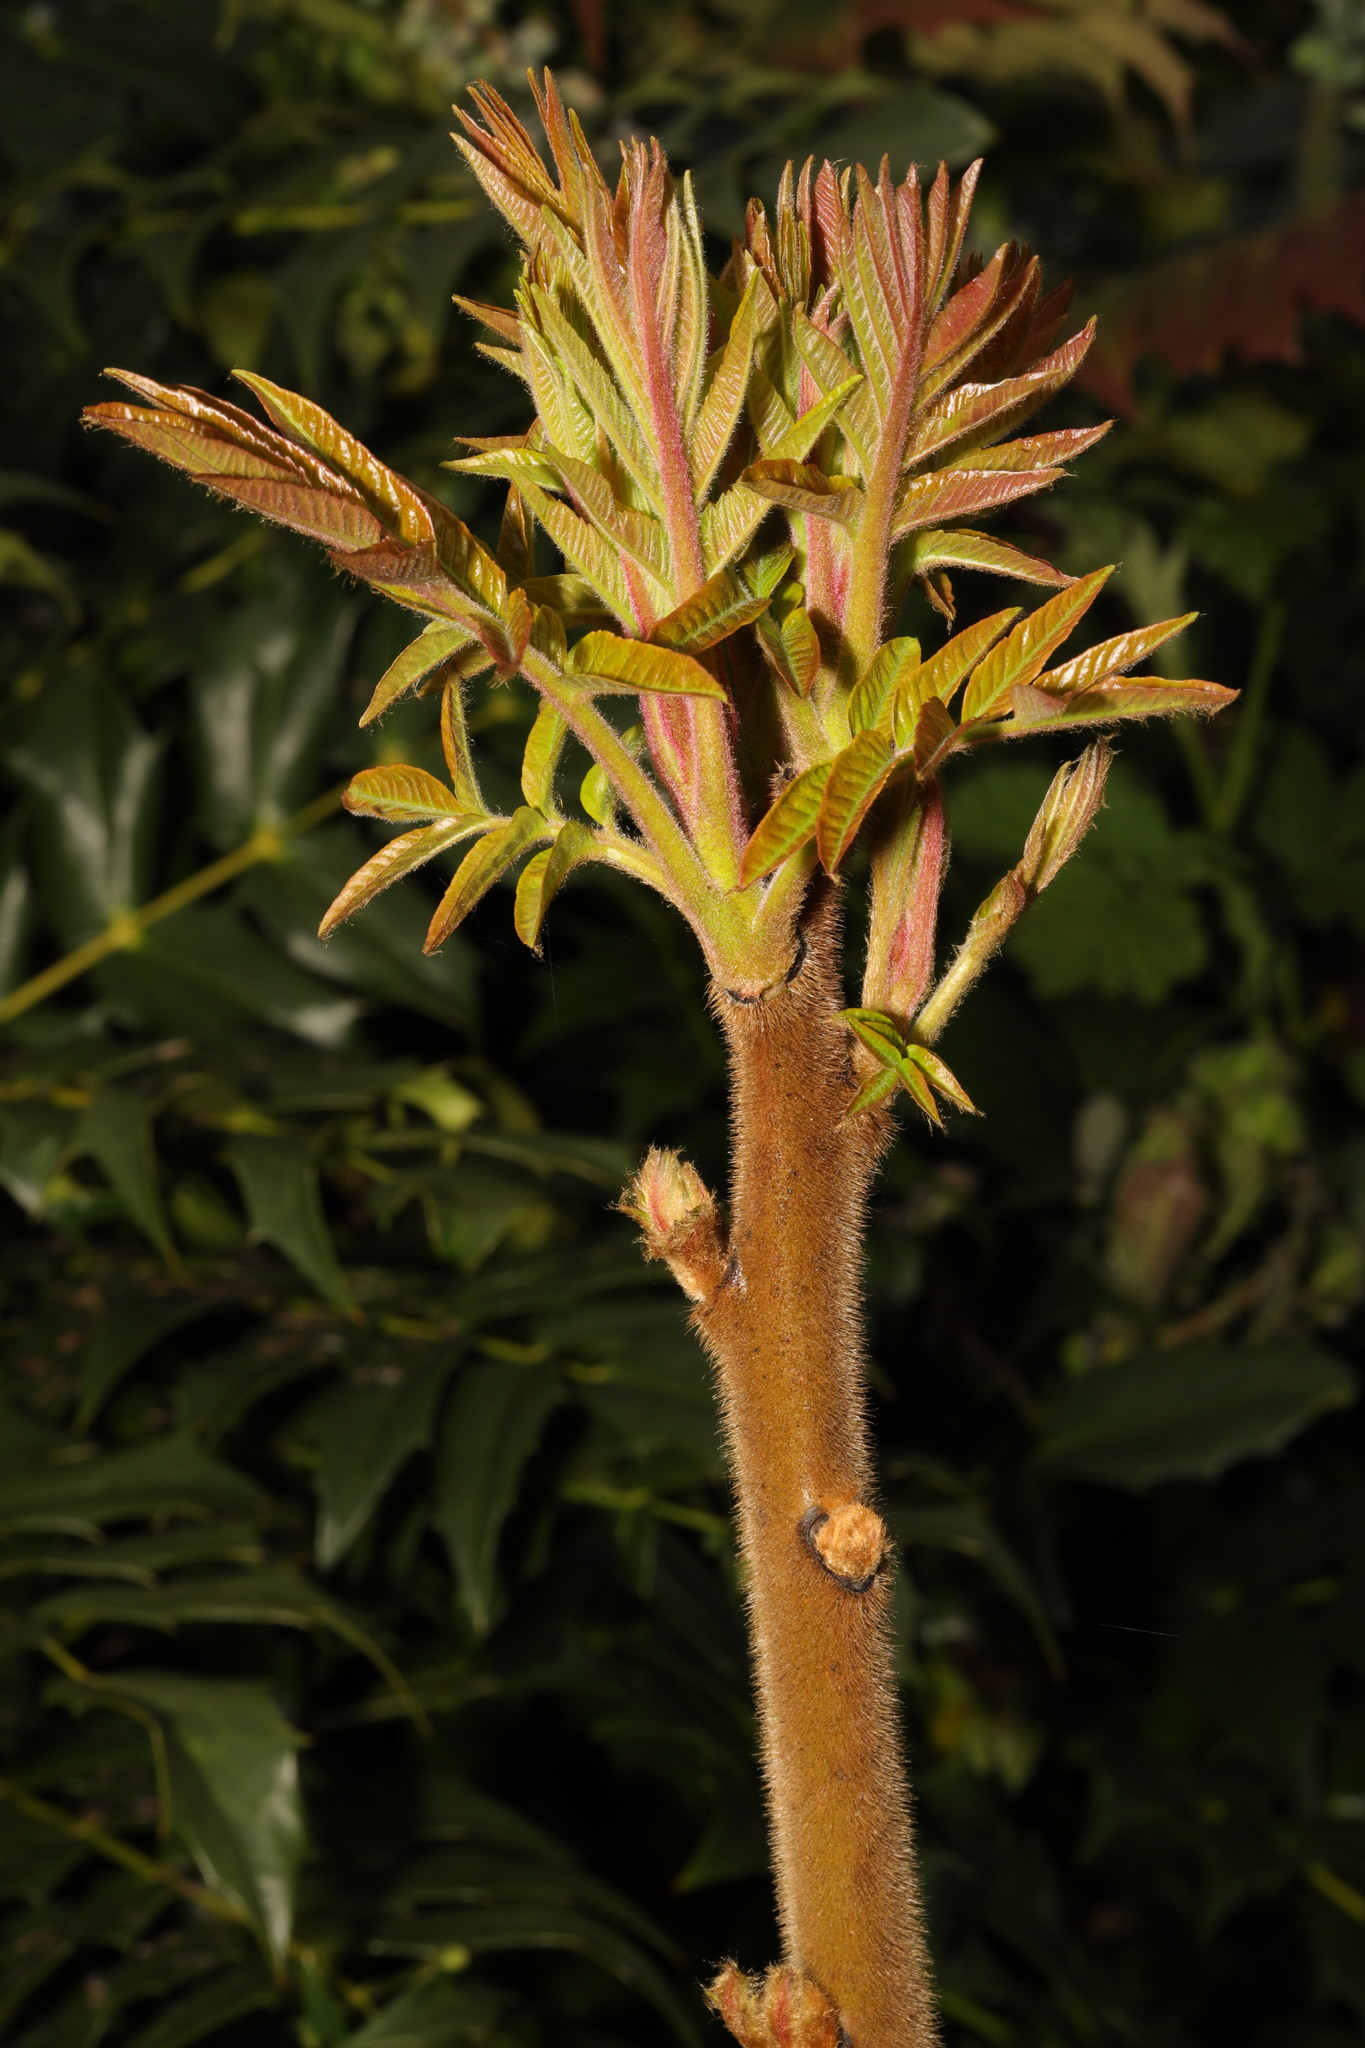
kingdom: Plantae
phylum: Tracheophyta
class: Magnoliopsida
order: Sapindales
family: Anacardiaceae
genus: Rhus
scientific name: Rhus typhina
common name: Staghorn sumac
